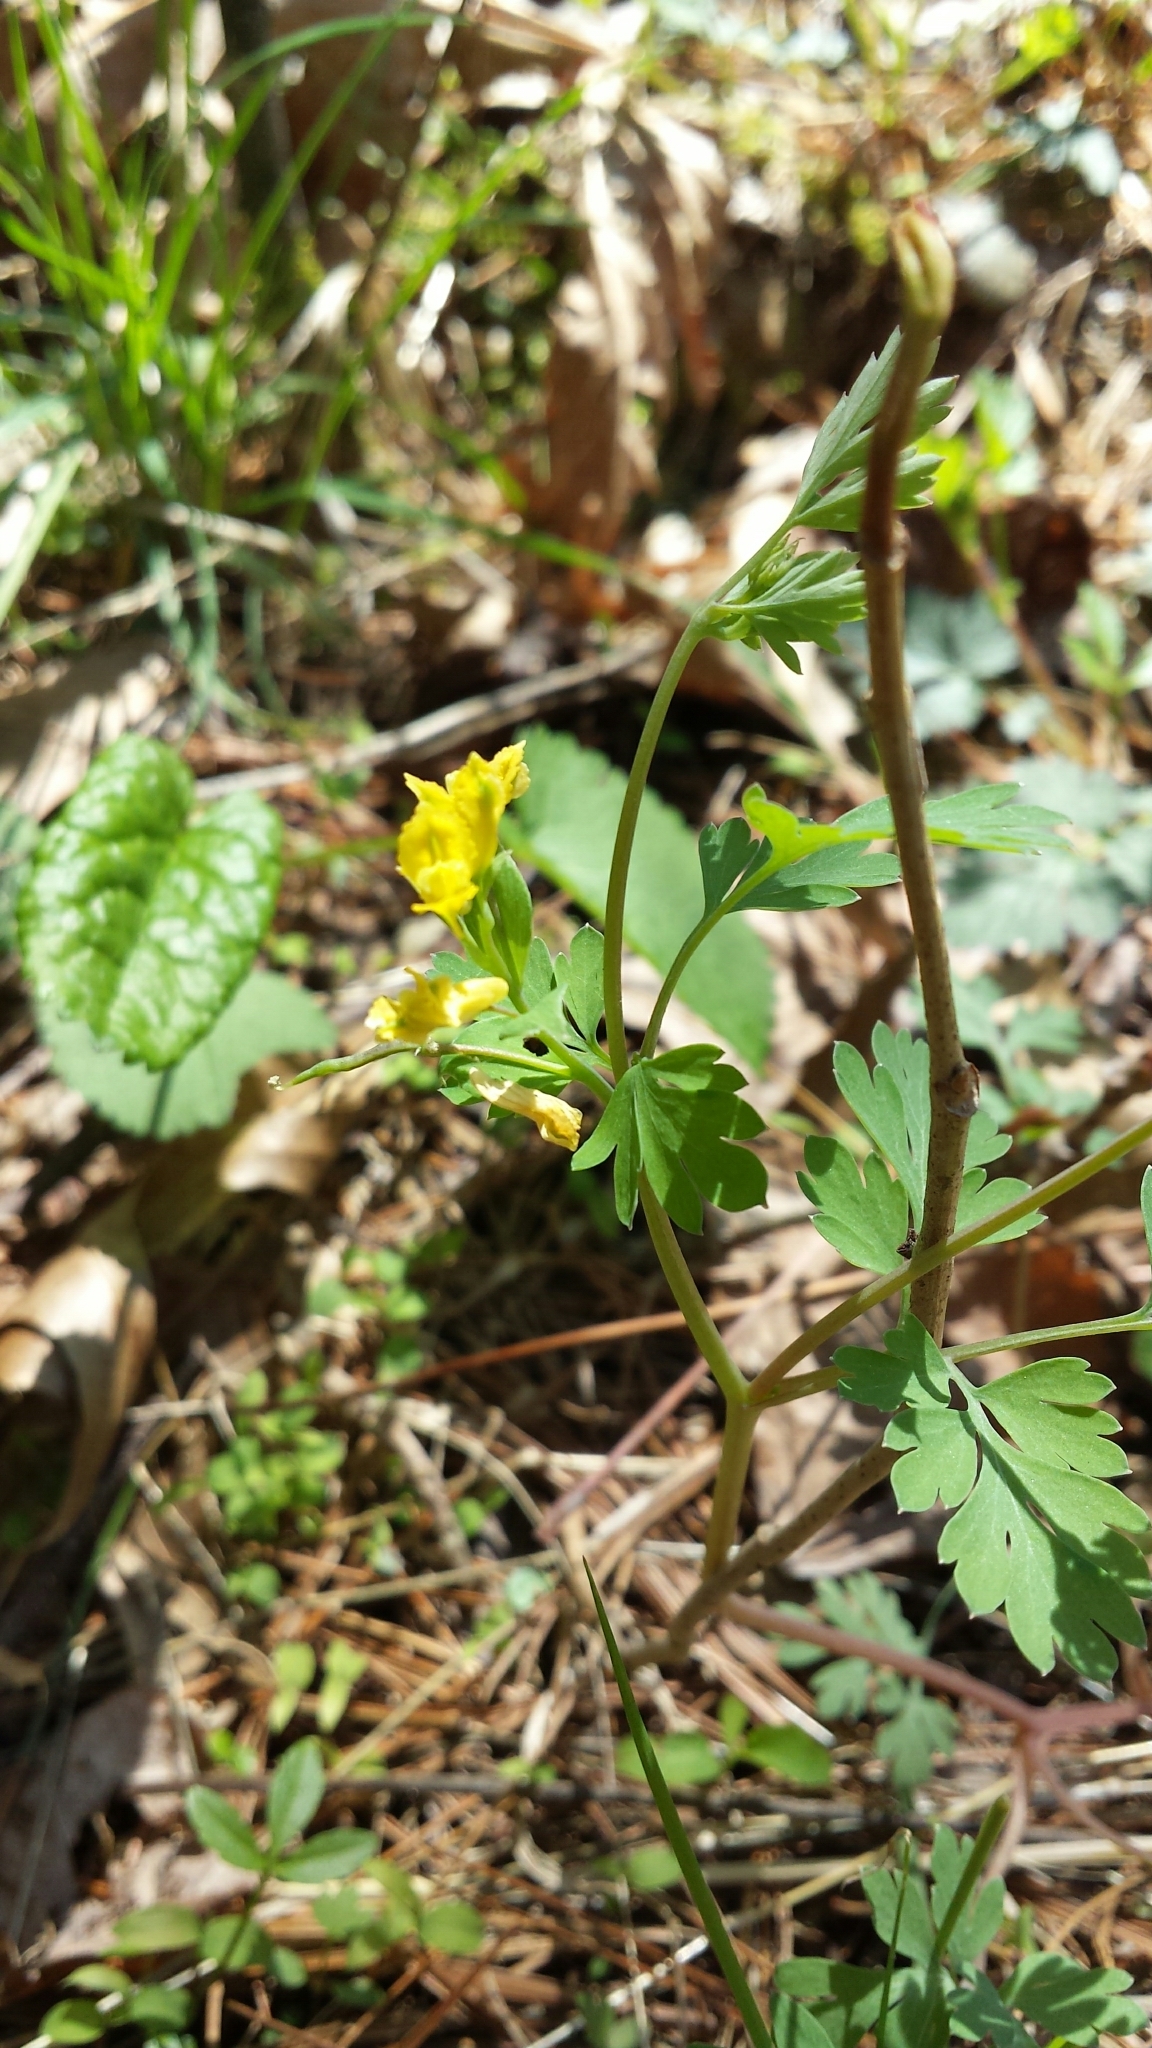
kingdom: Plantae
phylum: Tracheophyta
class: Magnoliopsida
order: Ranunculales
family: Papaveraceae
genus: Corydalis
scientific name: Corydalis flavula
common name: Yellow corydalis
